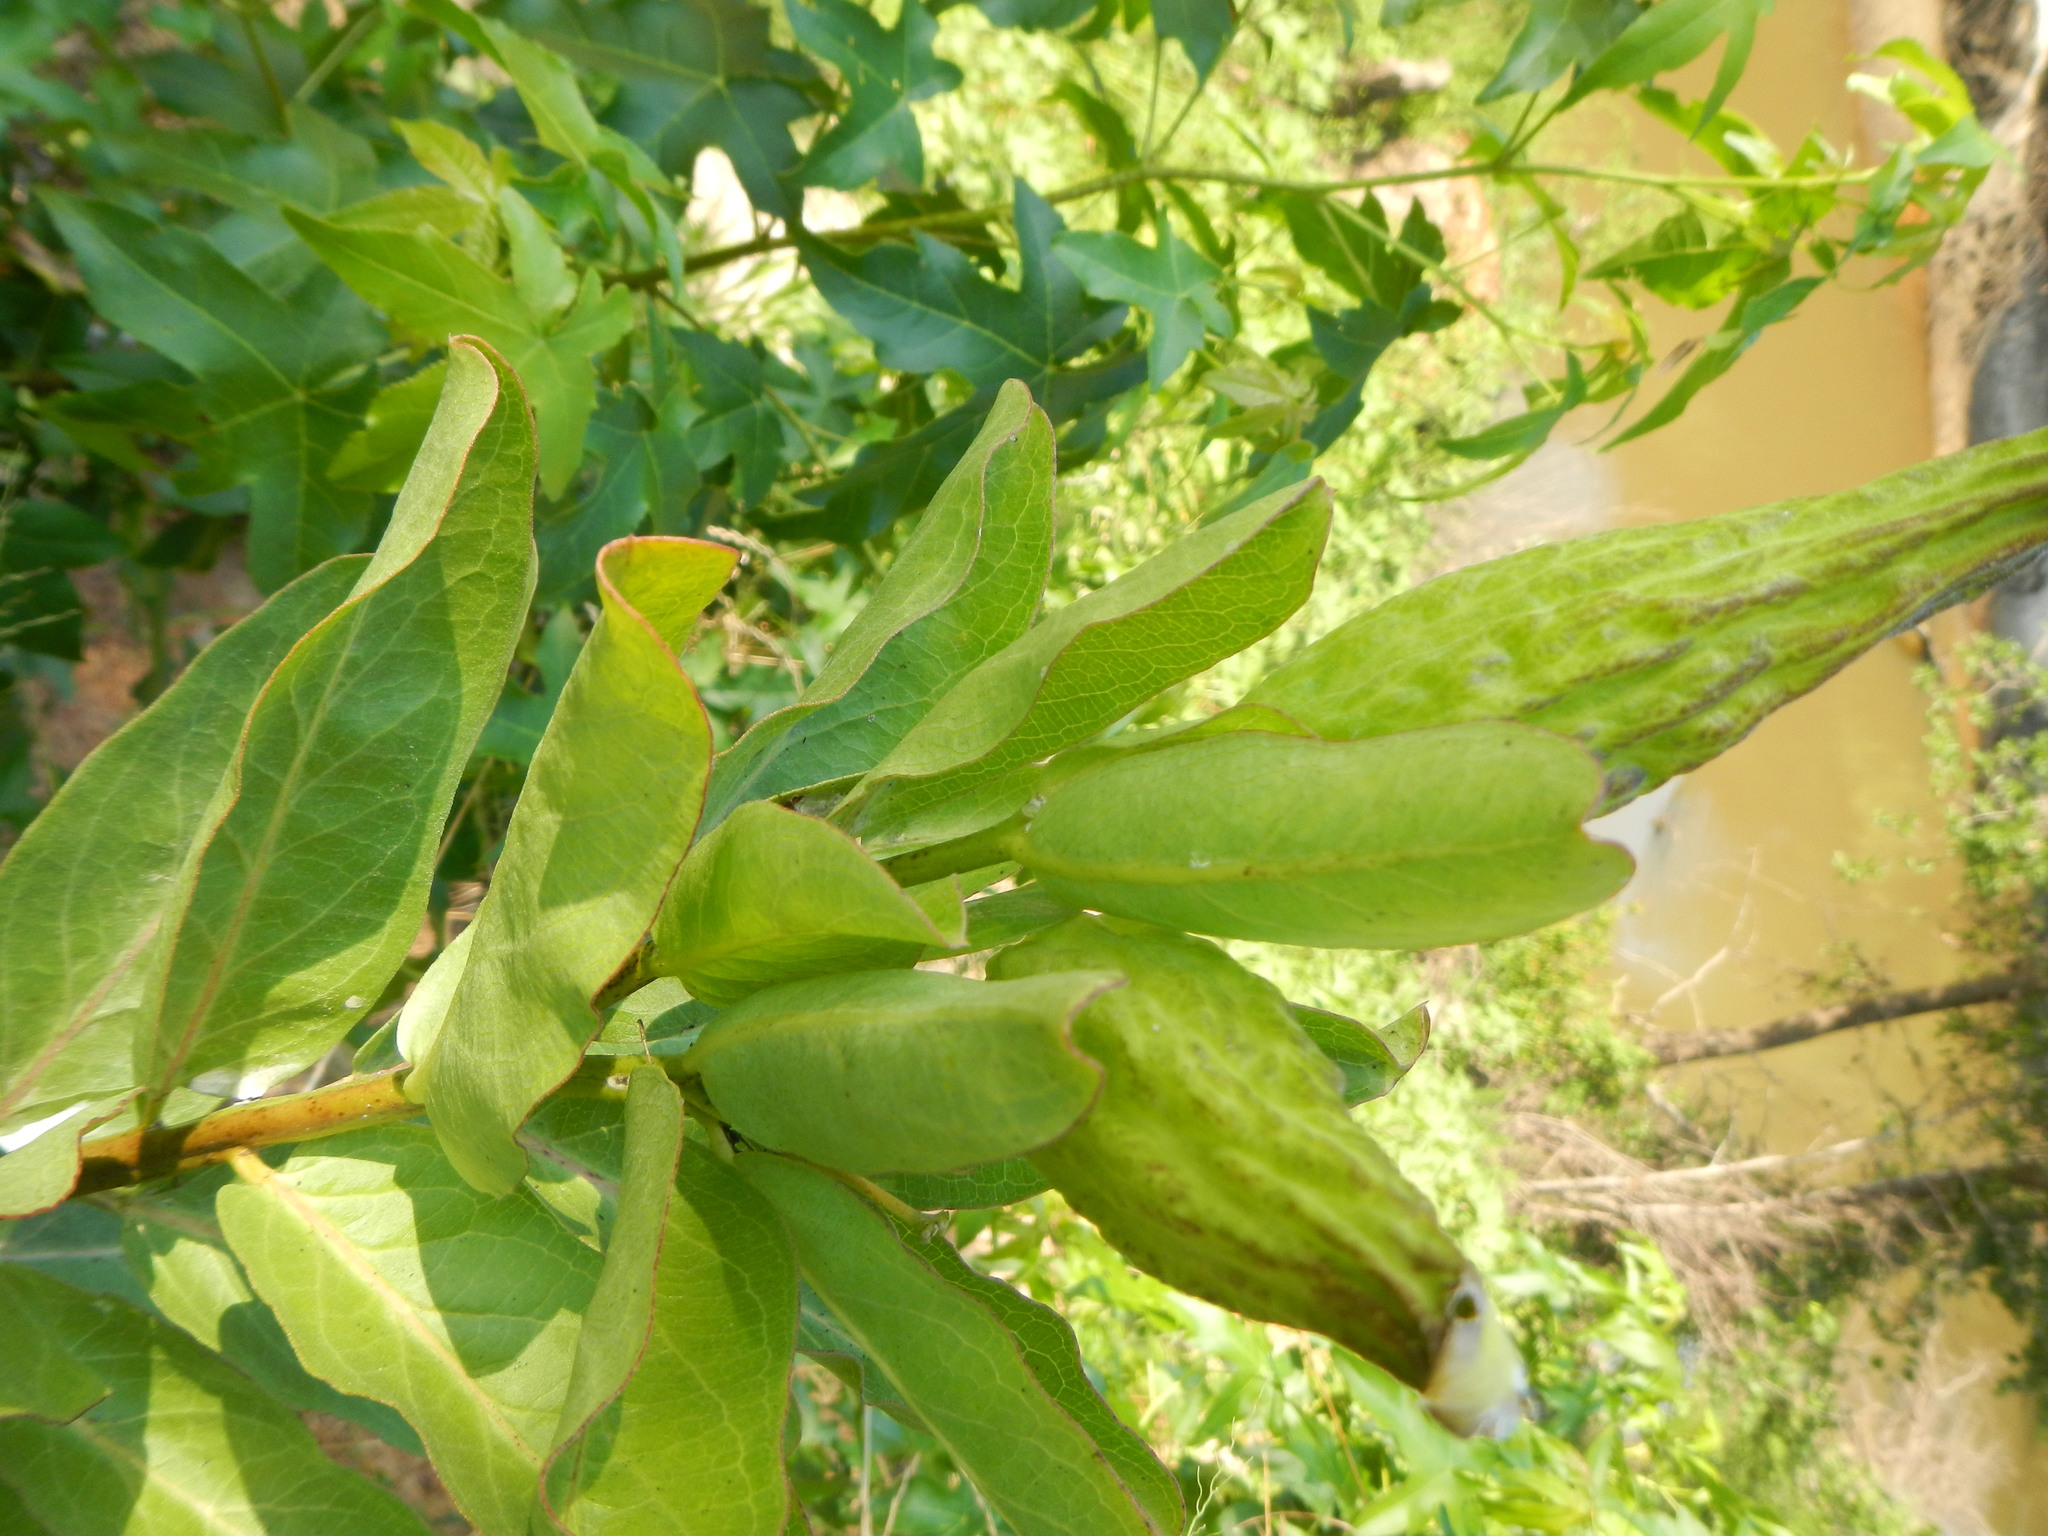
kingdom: Plantae
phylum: Tracheophyta
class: Magnoliopsida
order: Gentianales
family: Apocynaceae
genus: Asclepias
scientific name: Asclepias viridis
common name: Antelope-horns
